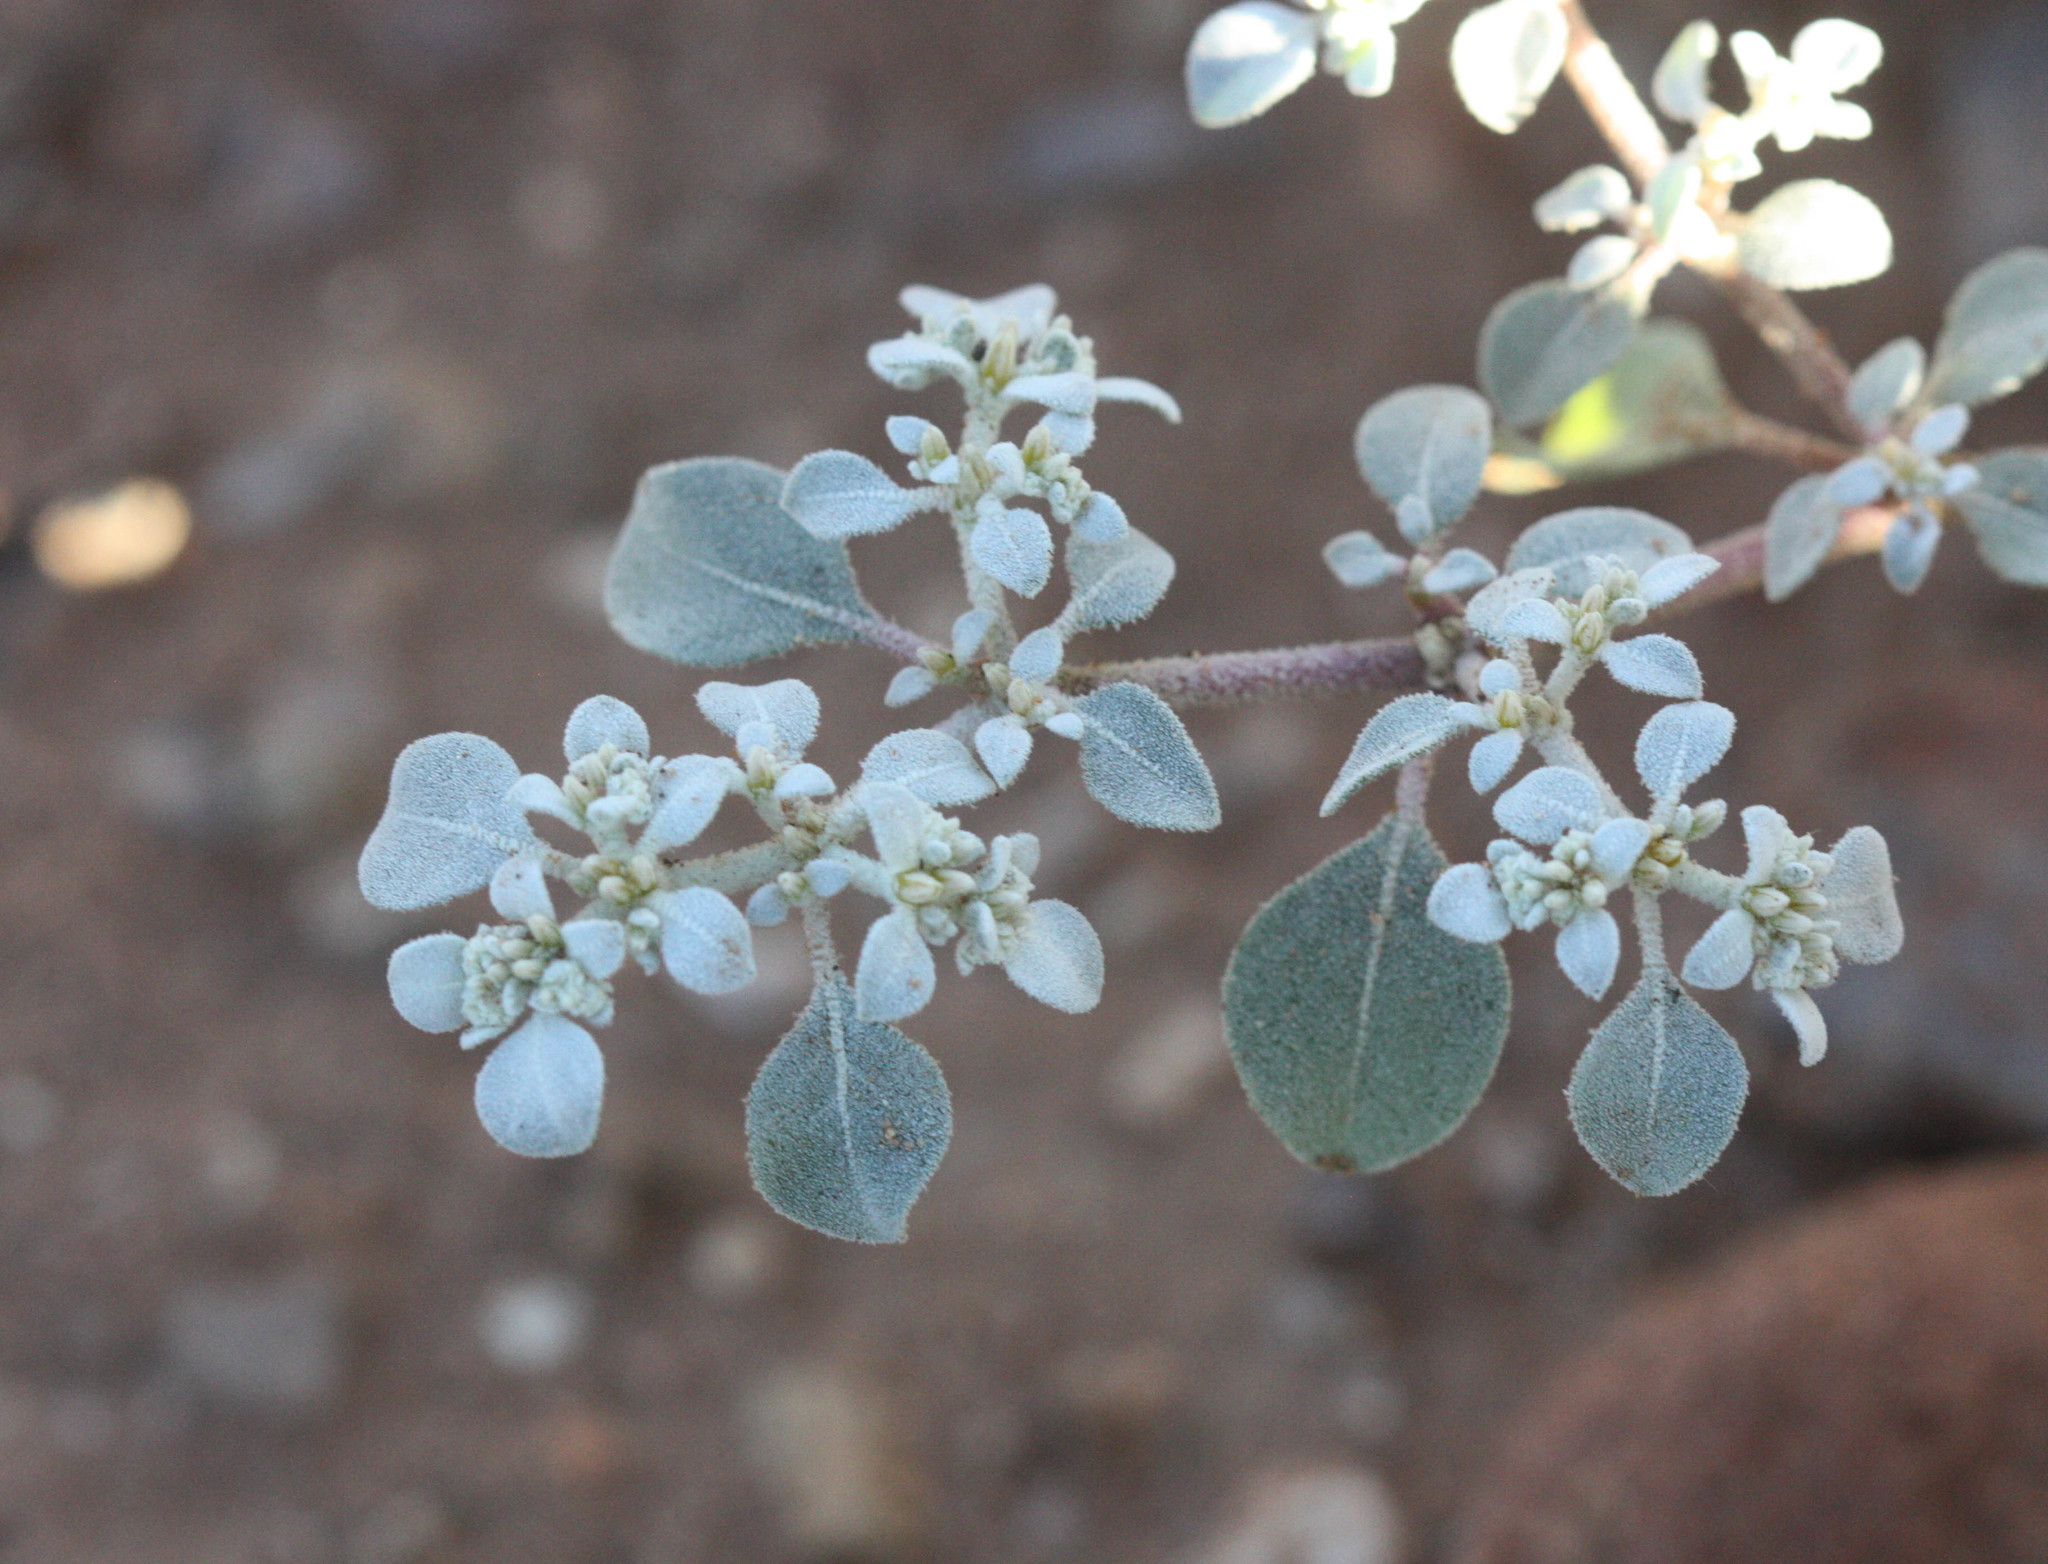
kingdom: Plantae
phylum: Tracheophyta
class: Magnoliopsida
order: Caryophyllales
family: Amaranthaceae
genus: Tidestromia
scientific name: Tidestromia lanuginosa
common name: Woolly tidestromia
